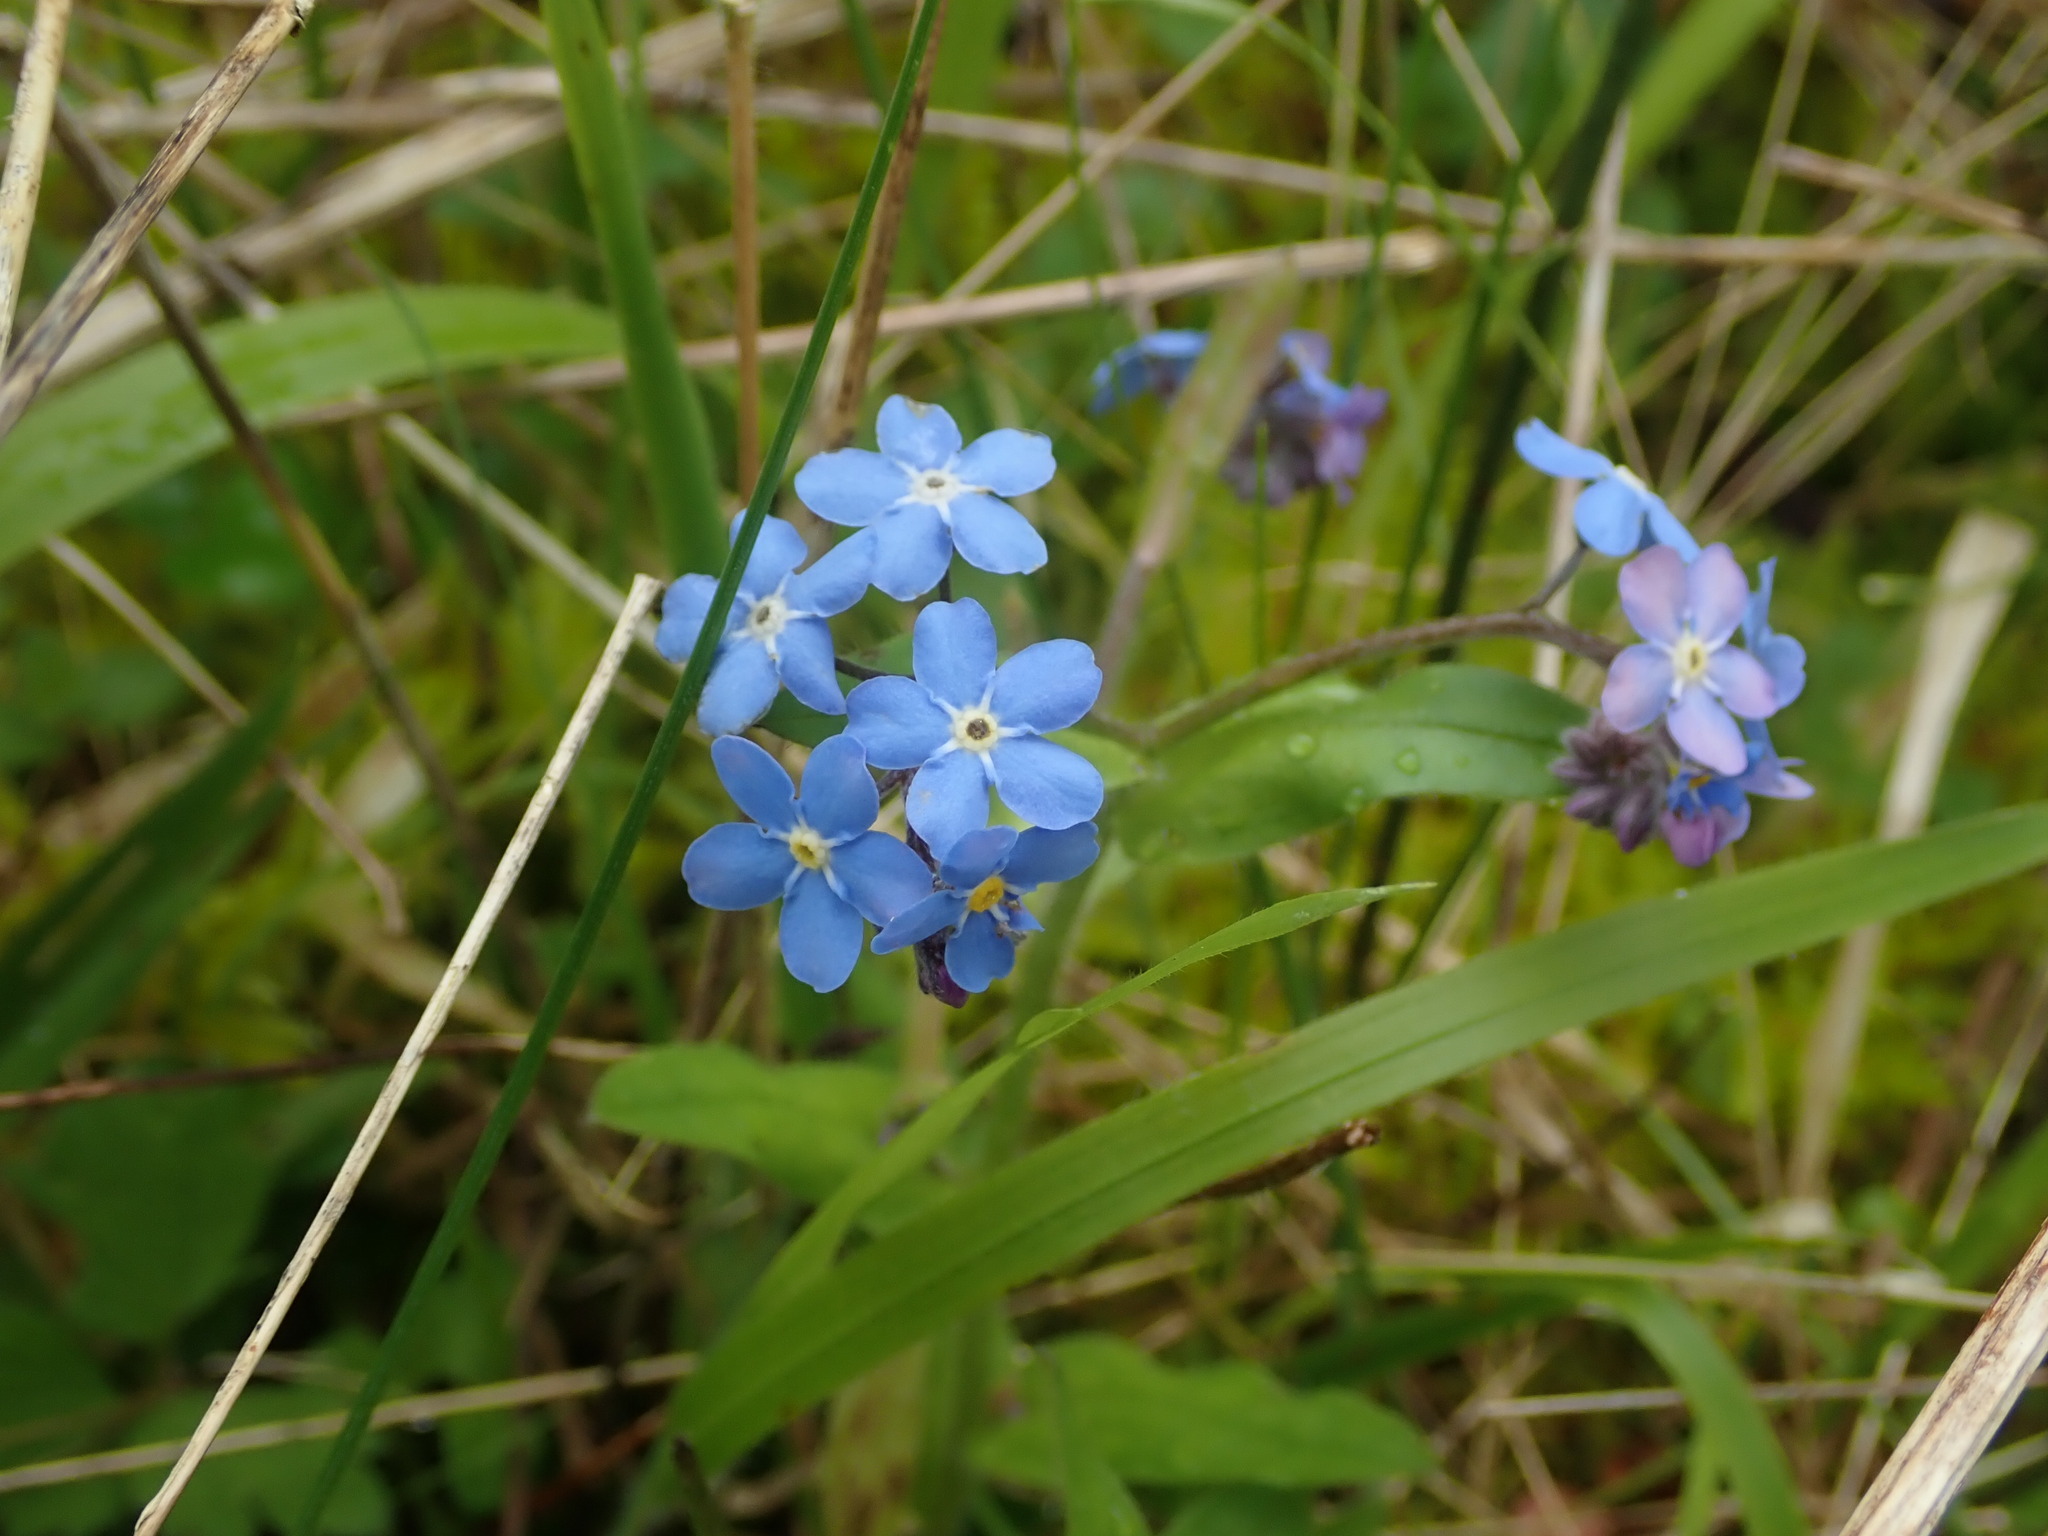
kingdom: Plantae
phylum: Tracheophyta
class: Magnoliopsida
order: Boraginales
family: Boraginaceae
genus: Myosotis
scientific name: Myosotis sylvatica
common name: Wood forget-me-not
